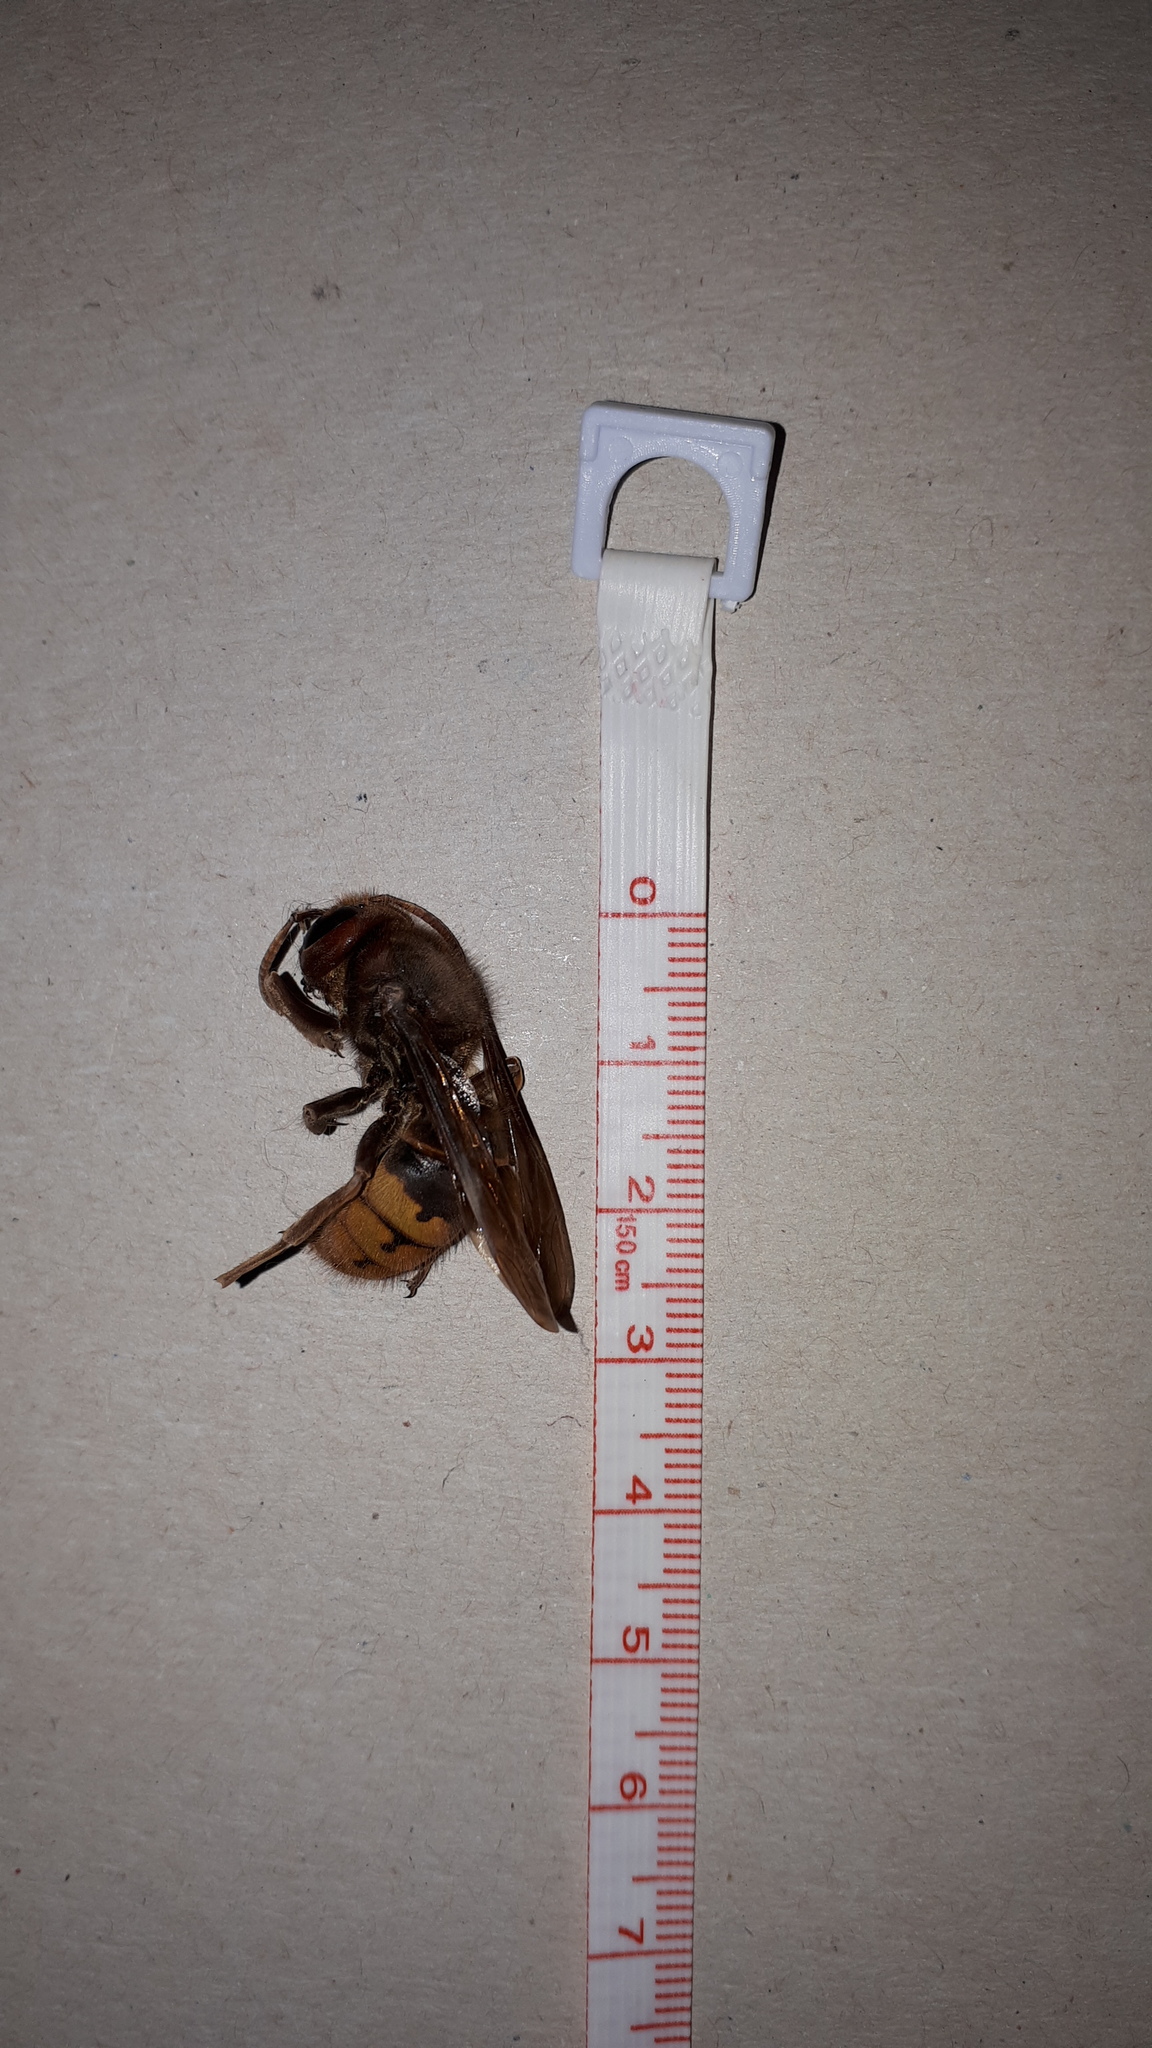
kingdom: Animalia
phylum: Arthropoda
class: Insecta
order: Hymenoptera
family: Vespidae
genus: Vespa
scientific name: Vespa crabro
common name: Hornet
